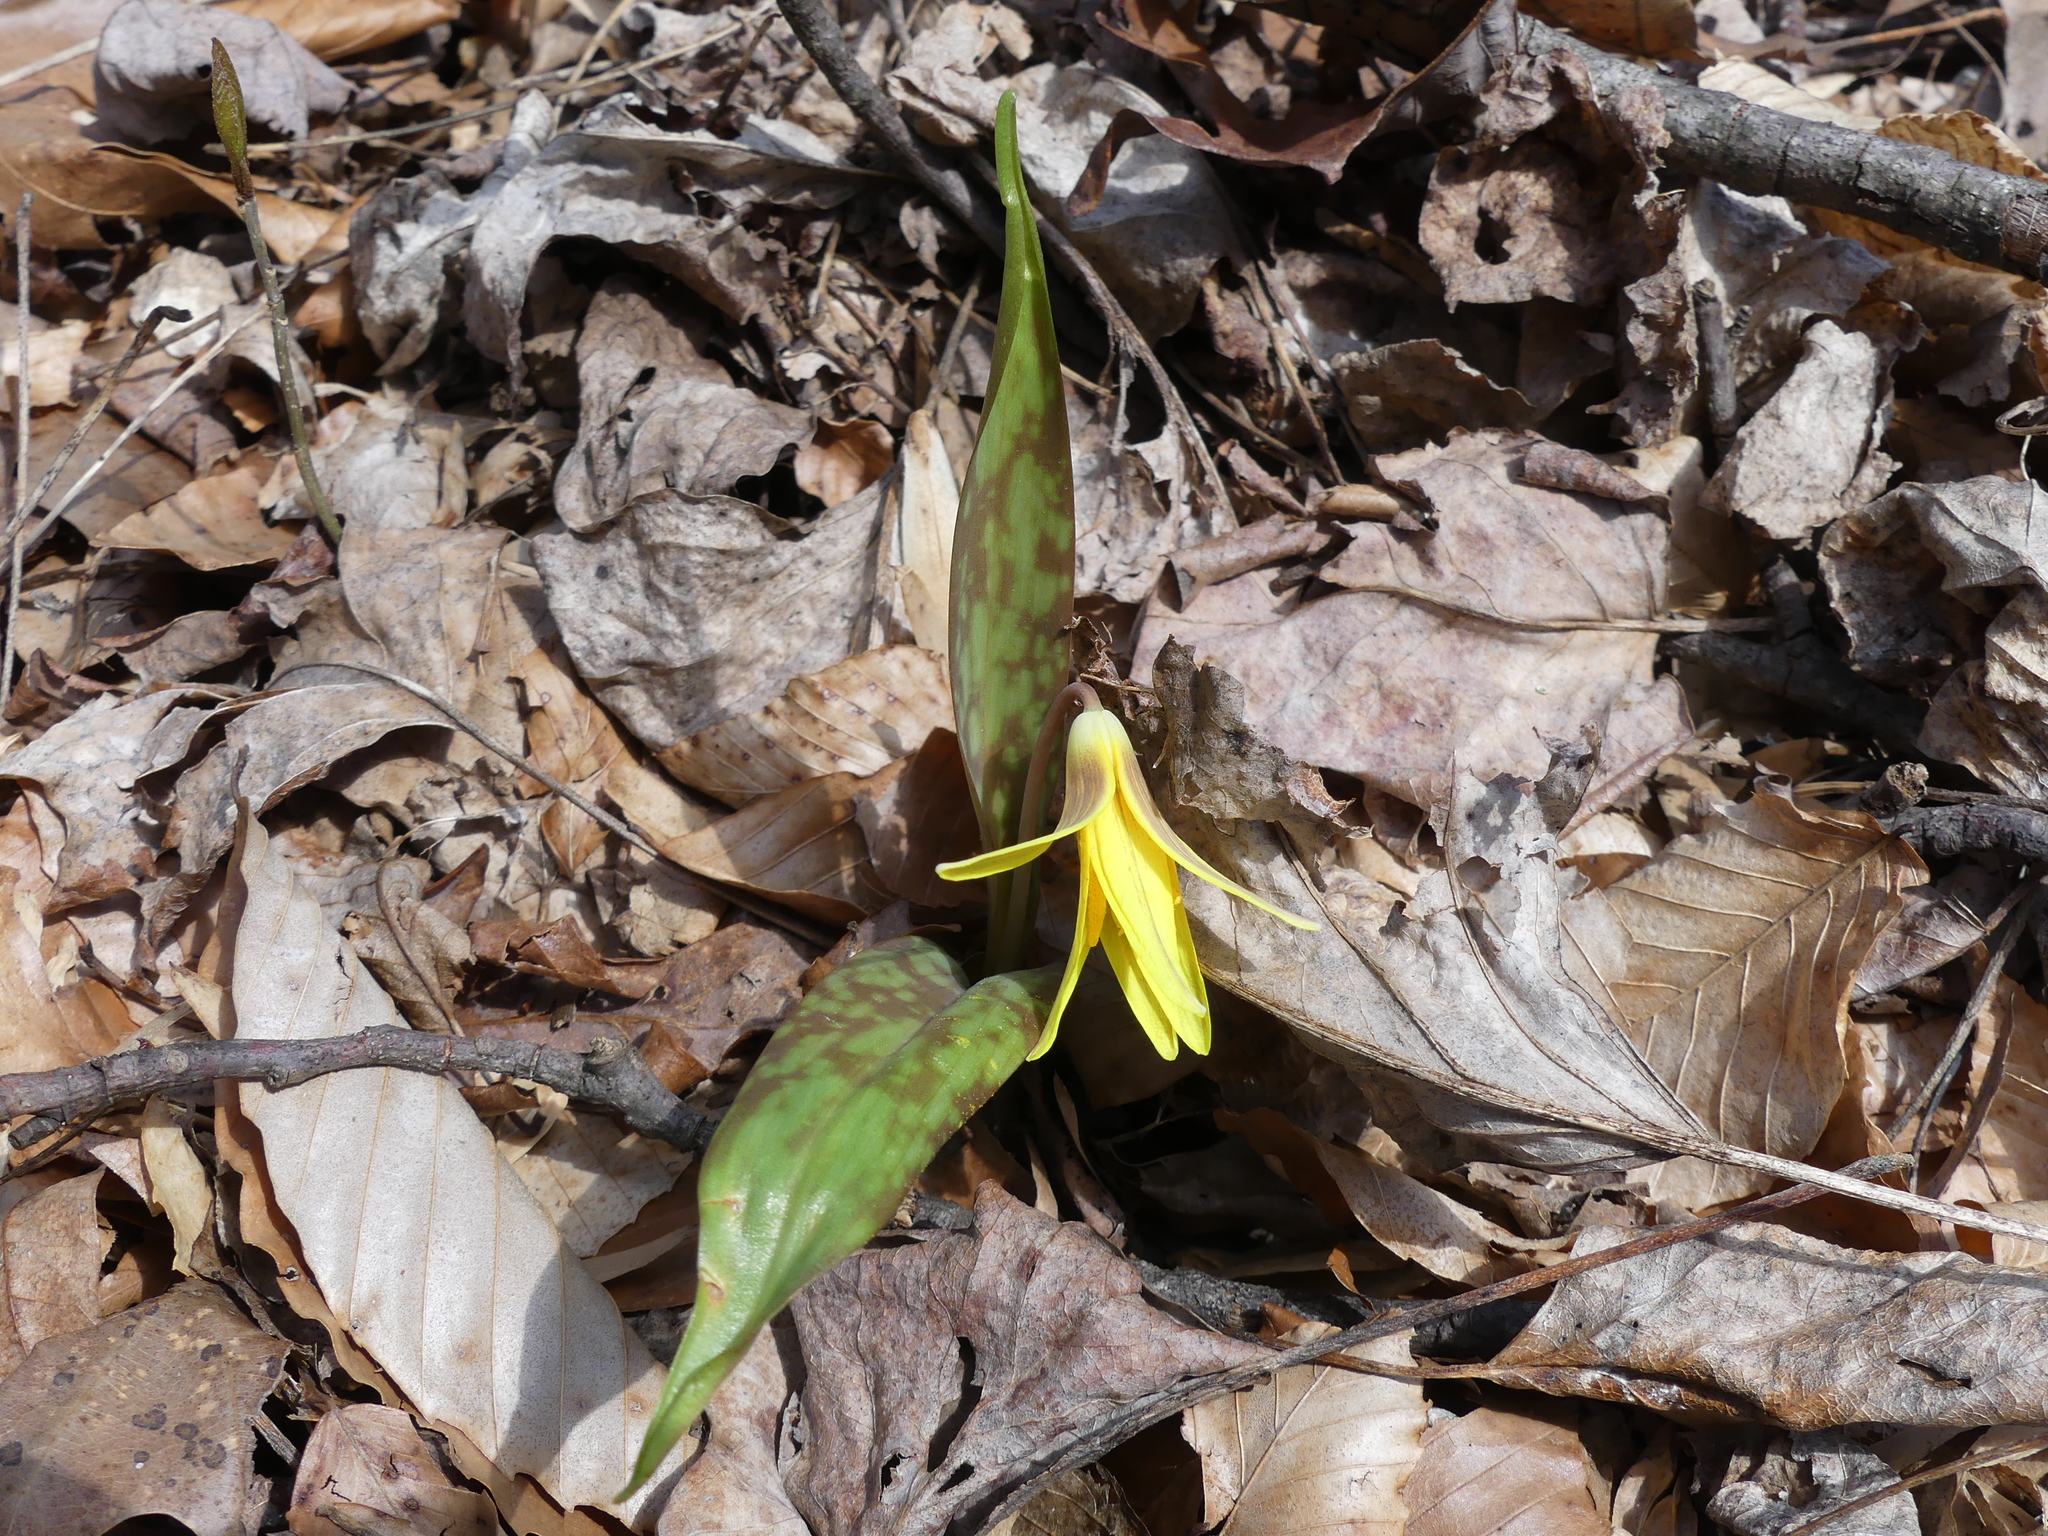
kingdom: Plantae
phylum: Tracheophyta
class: Liliopsida
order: Liliales
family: Liliaceae
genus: Erythronium
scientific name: Erythronium americanum
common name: Yellow adder's-tongue
